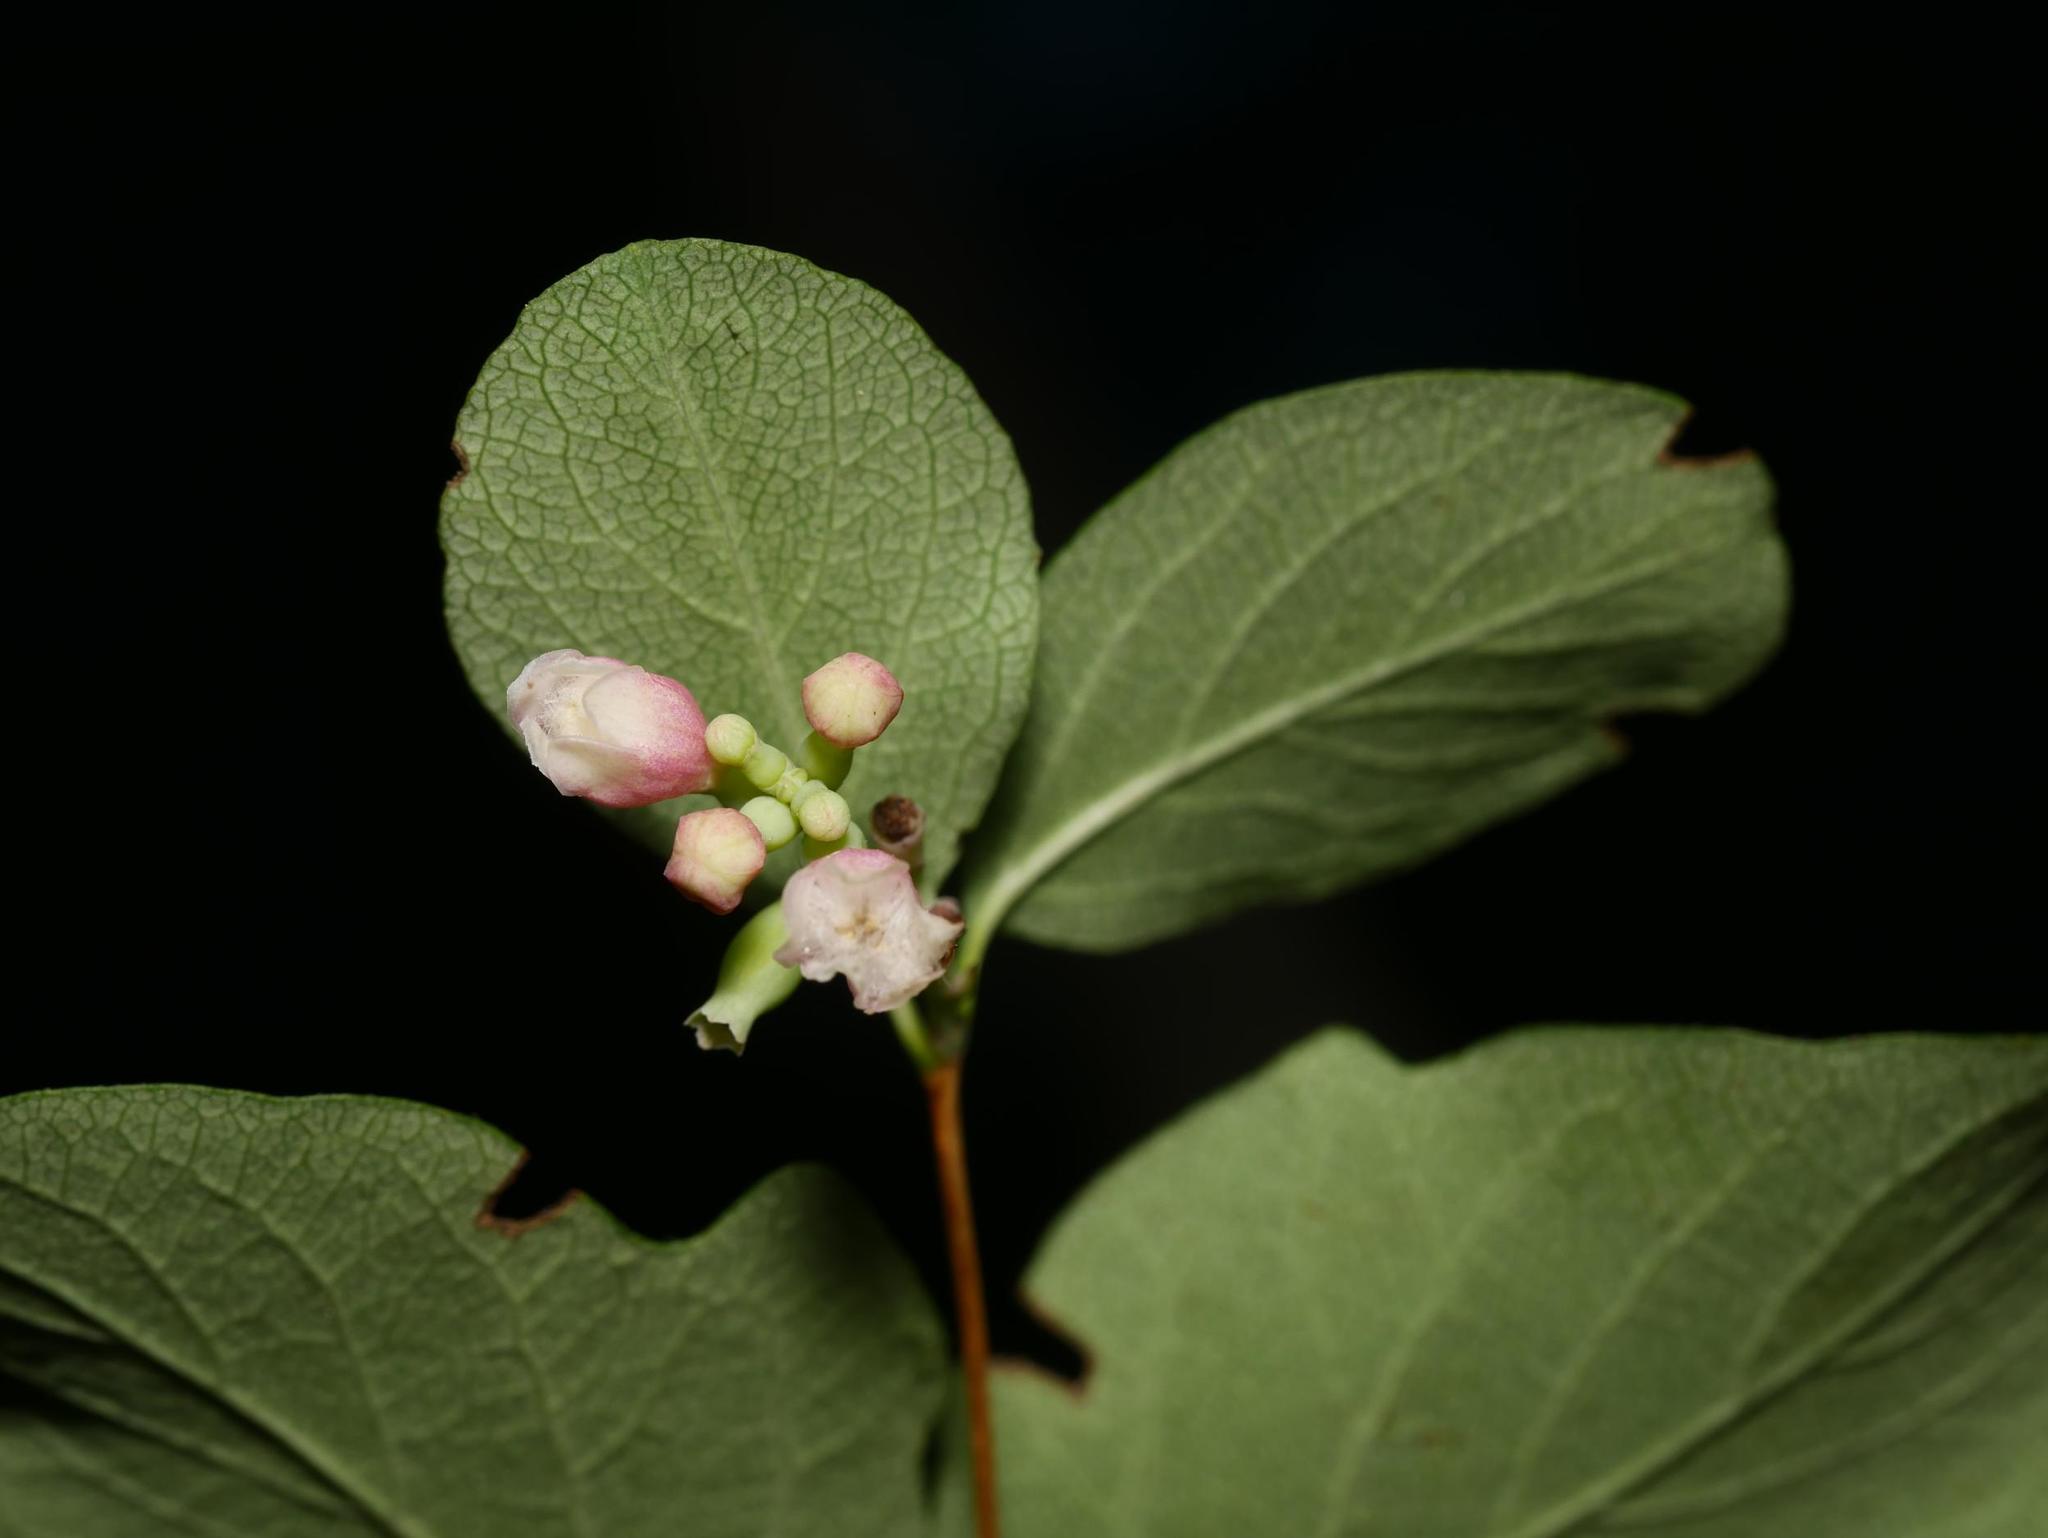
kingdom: Plantae
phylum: Tracheophyta
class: Magnoliopsida
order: Dipsacales
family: Caprifoliaceae
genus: Symphoricarpos
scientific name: Symphoricarpos albus
